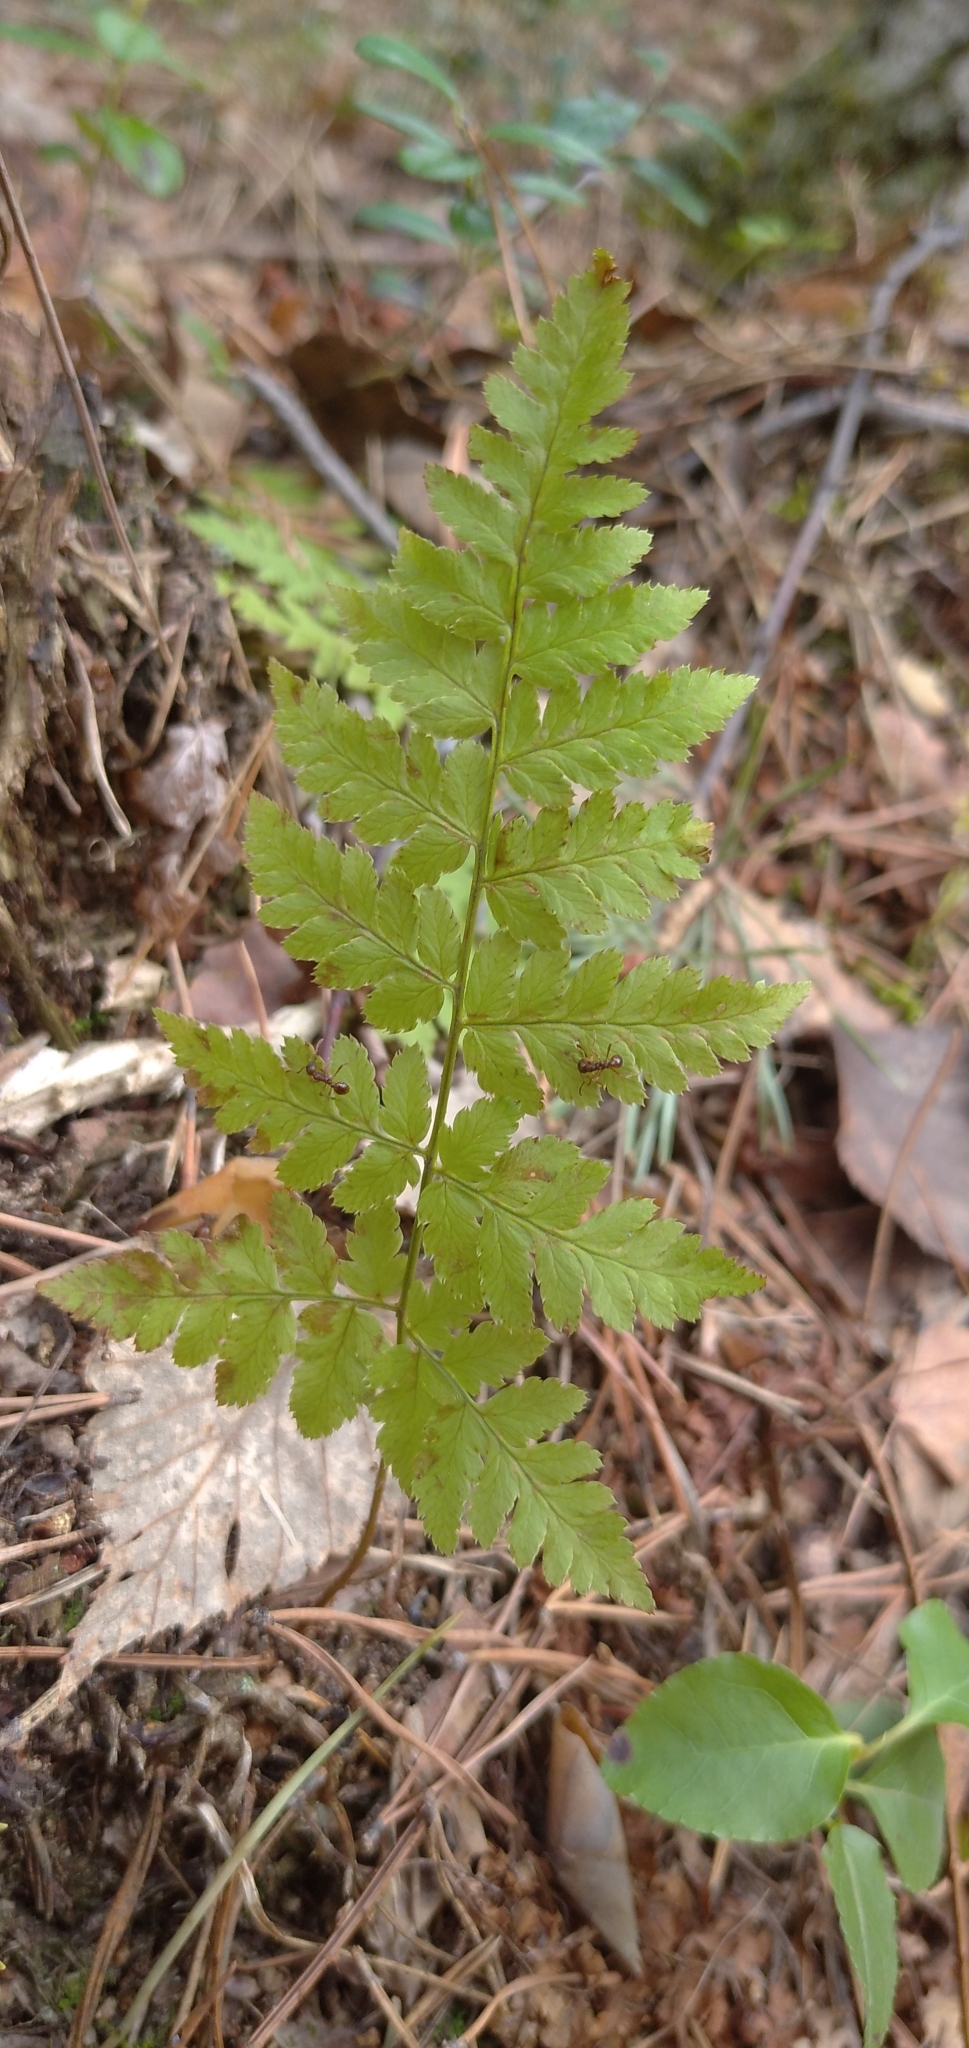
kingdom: Plantae
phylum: Tracheophyta
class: Polypodiopsida
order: Polypodiales
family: Dryopteridaceae
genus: Dryopteris
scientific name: Dryopteris carthusiana
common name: Narrow buckler-fern
